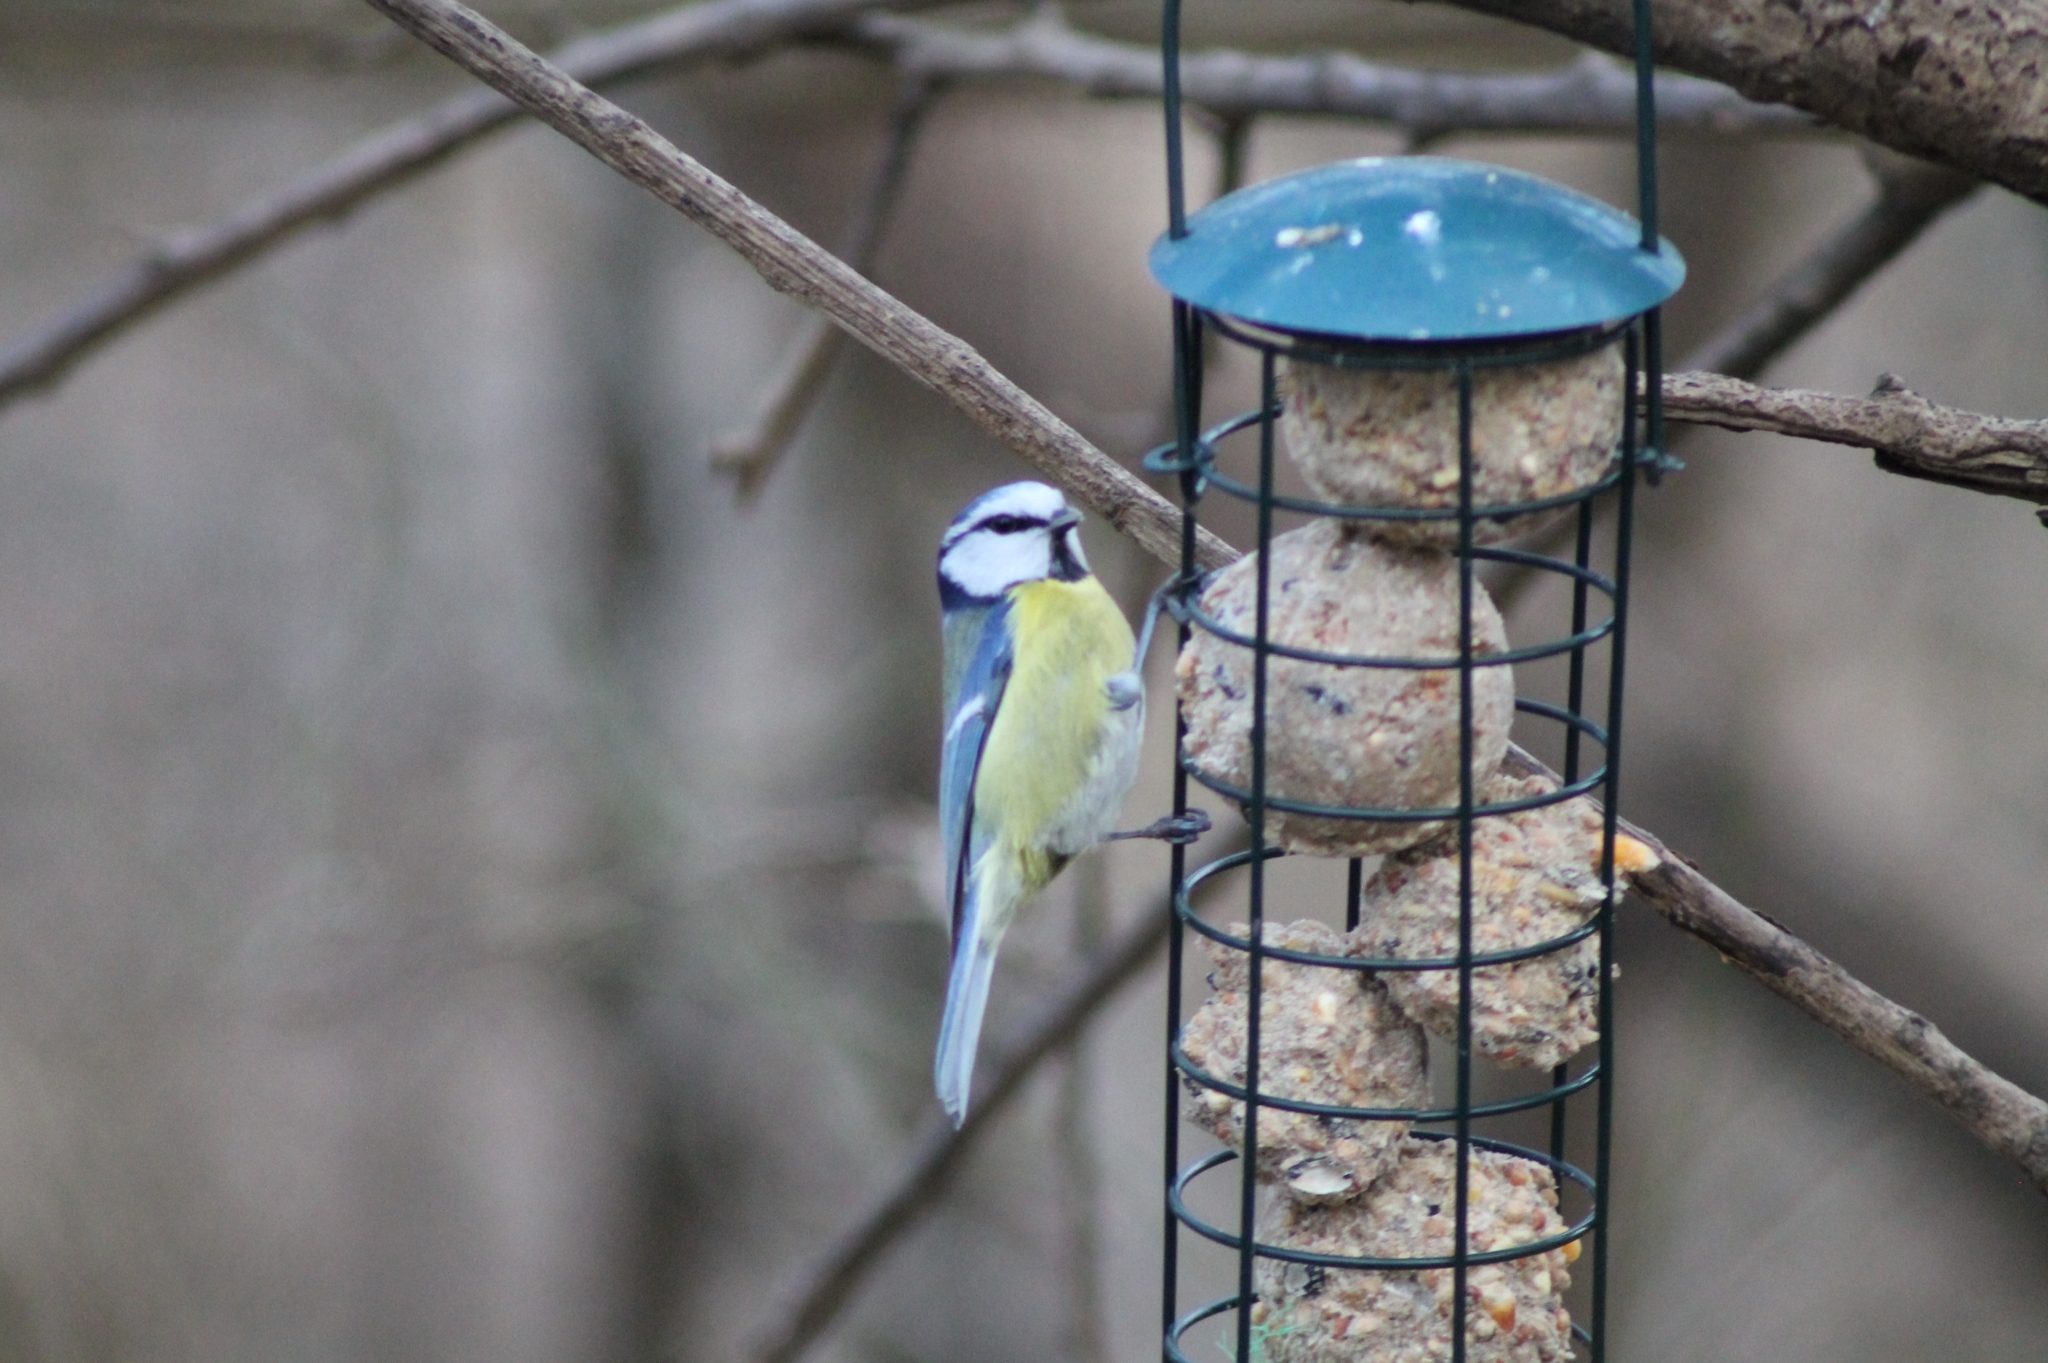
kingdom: Animalia
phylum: Chordata
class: Aves
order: Passeriformes
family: Paridae
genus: Cyanistes
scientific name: Cyanistes caeruleus
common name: Eurasian blue tit
